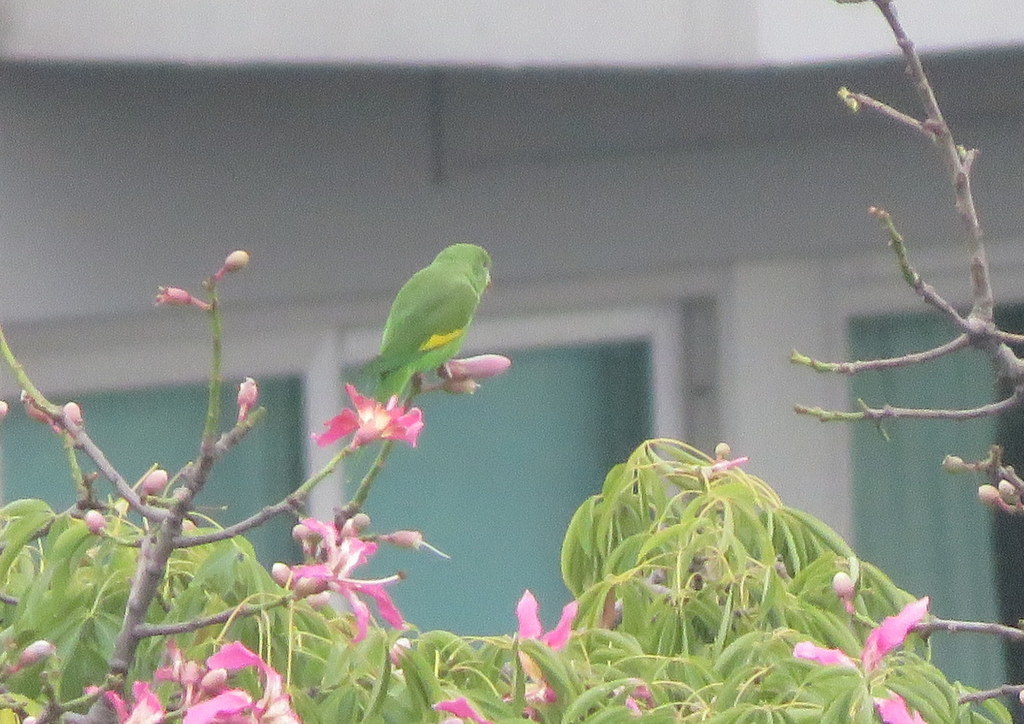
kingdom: Animalia
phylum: Chordata
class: Aves
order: Psittaciformes
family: Psittacidae
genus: Brotogeris
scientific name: Brotogeris chiriri
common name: Yellow-chevroned parakeet
